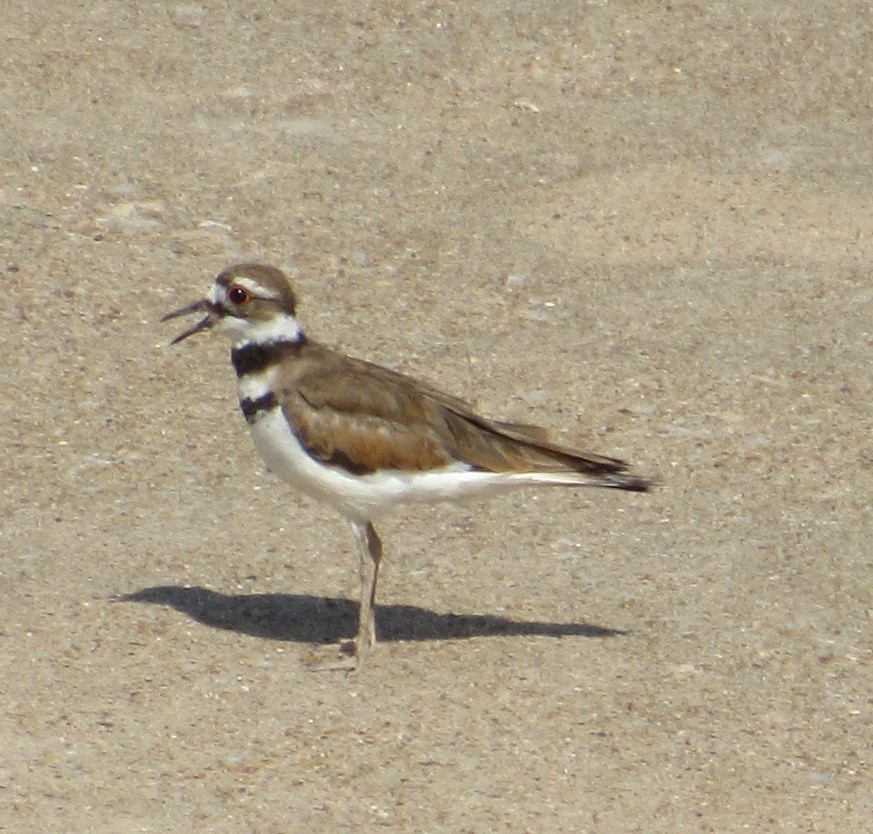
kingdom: Animalia
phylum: Chordata
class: Aves
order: Charadriiformes
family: Charadriidae
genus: Charadrius
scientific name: Charadrius vociferus
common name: Killdeer
